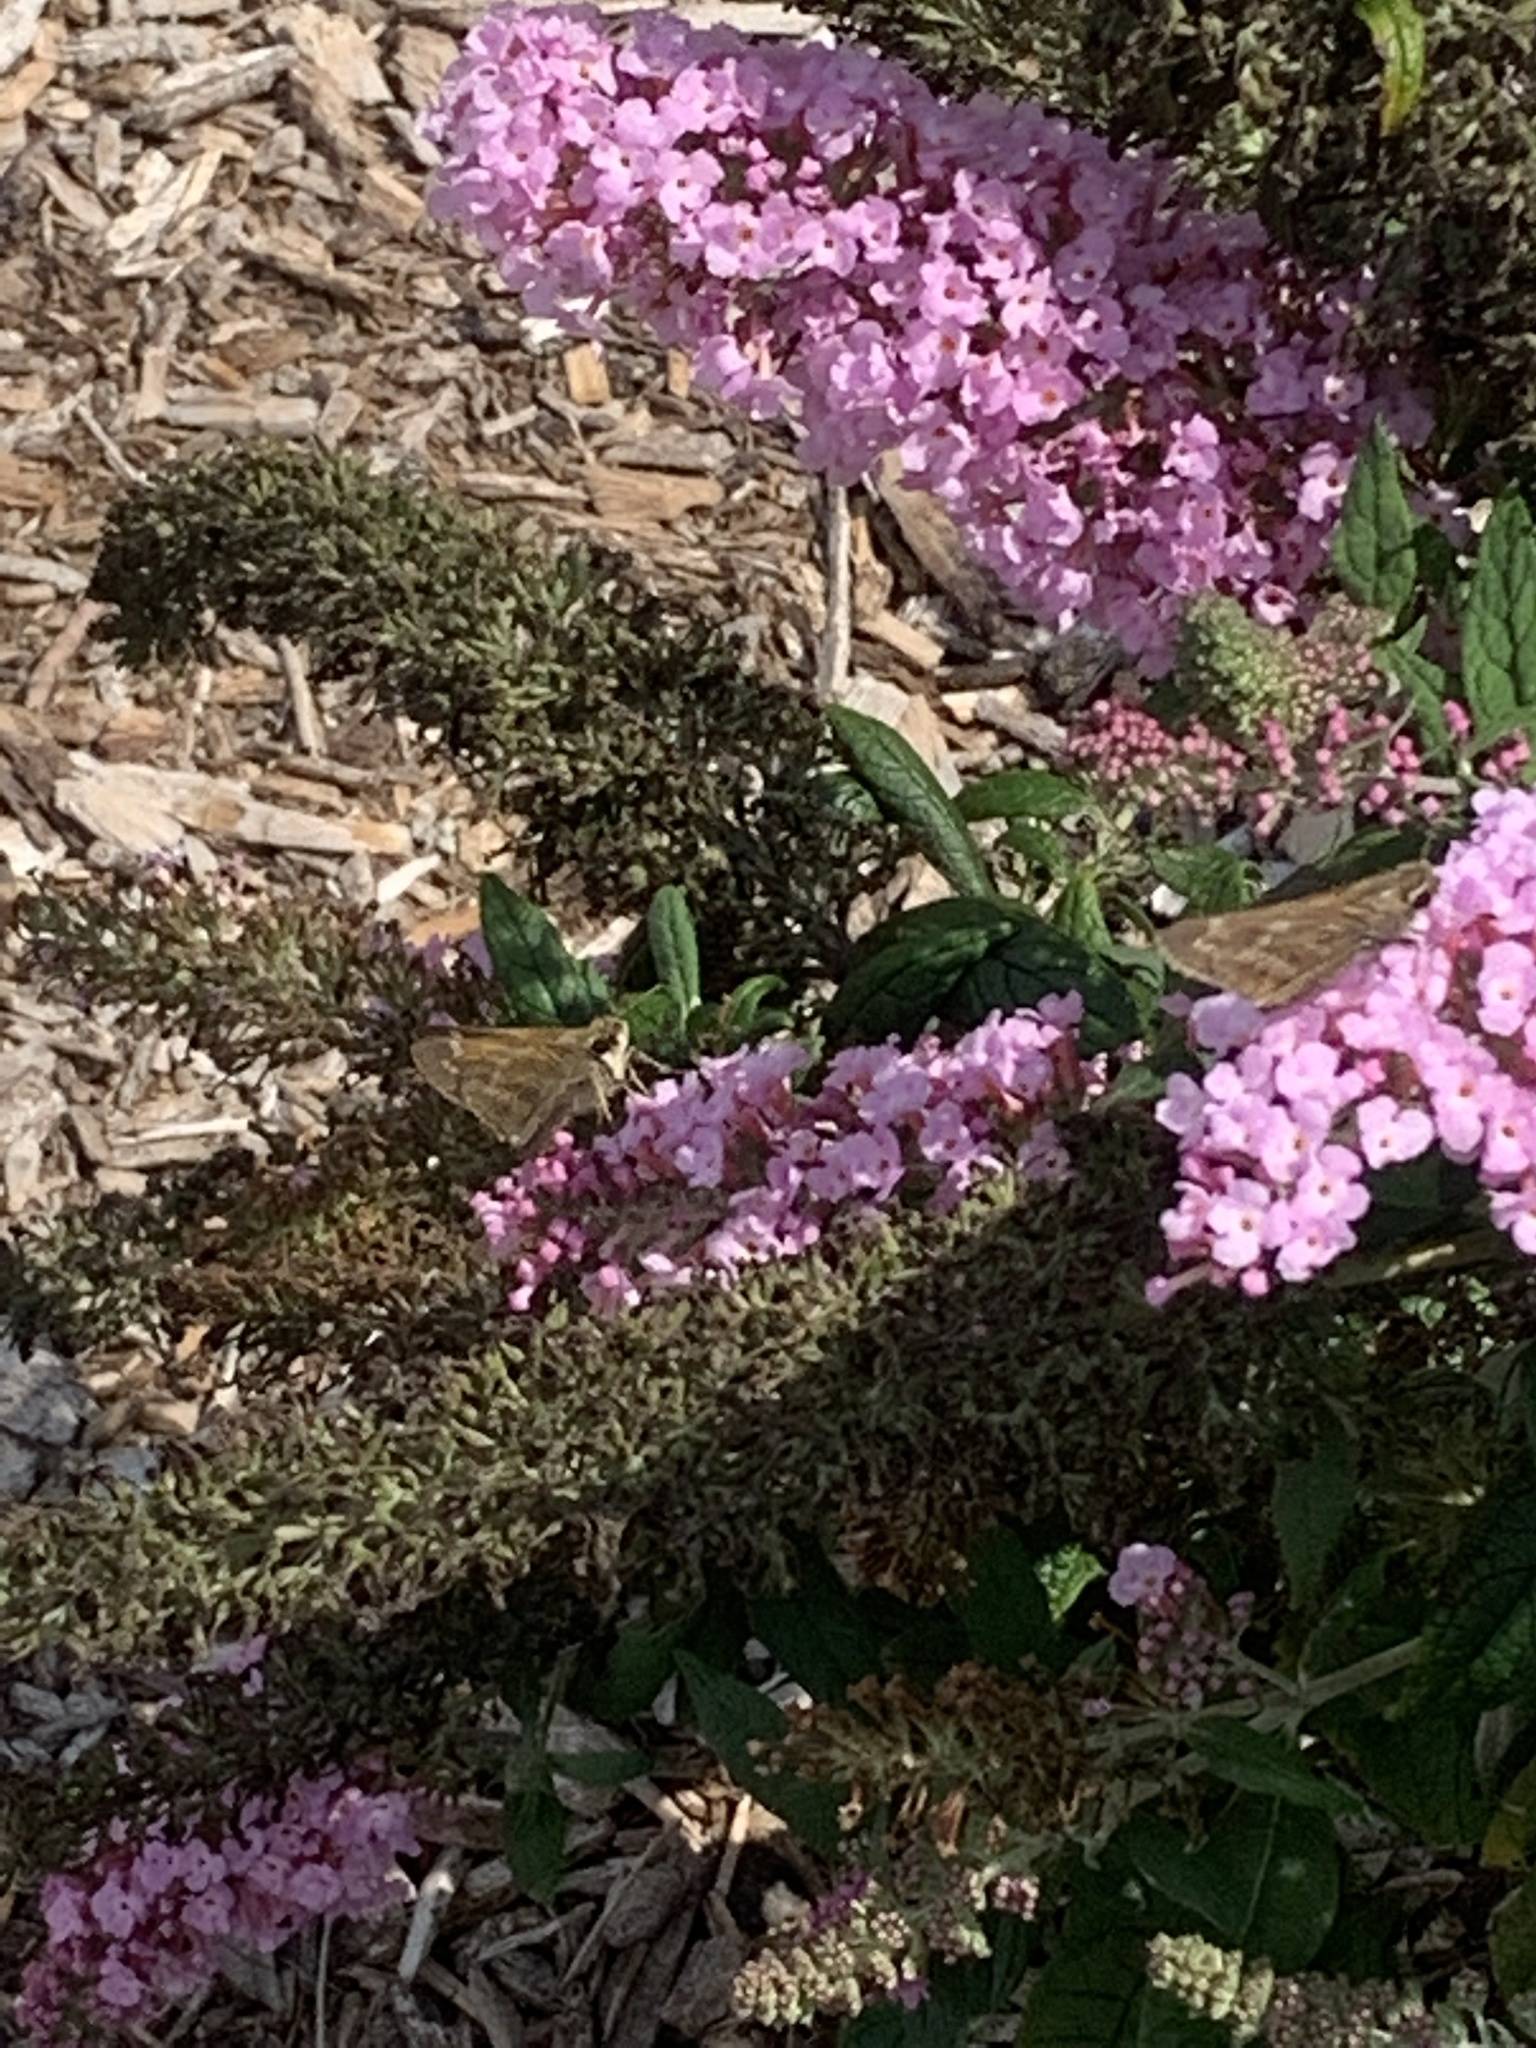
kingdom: Animalia
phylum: Arthropoda
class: Insecta
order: Lepidoptera
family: Hesperiidae
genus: Atalopedes
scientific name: Atalopedes
